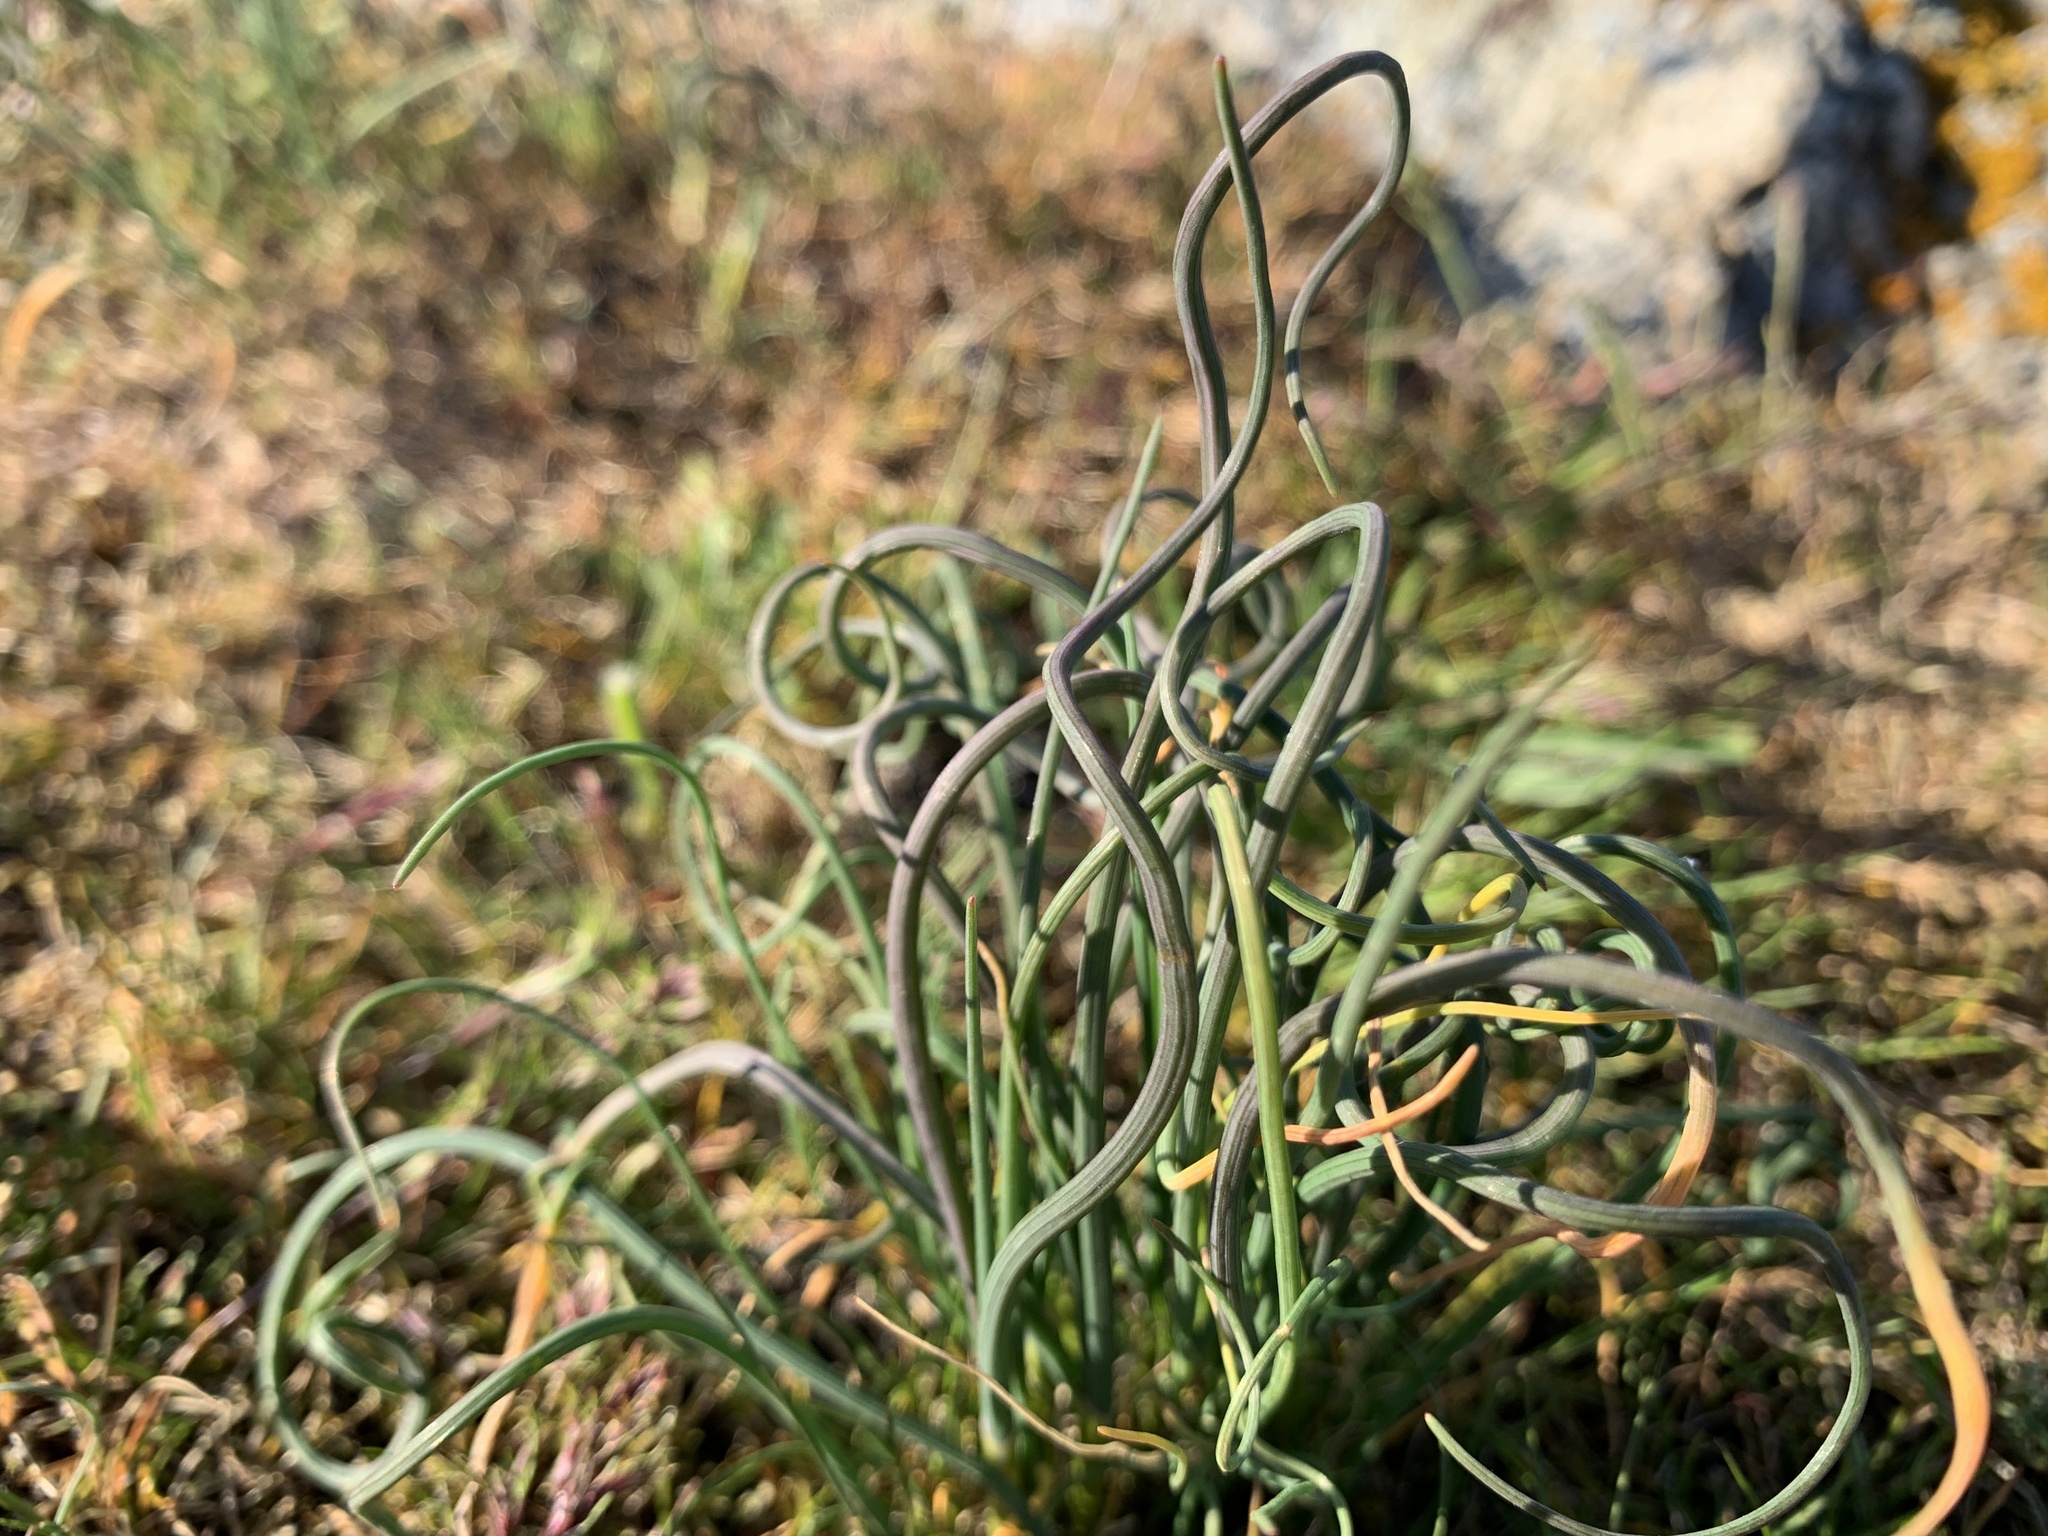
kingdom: Plantae
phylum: Tracheophyta
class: Liliopsida
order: Asparagales
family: Amaryllidaceae
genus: Allium
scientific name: Allium vineale
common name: Crow garlic
